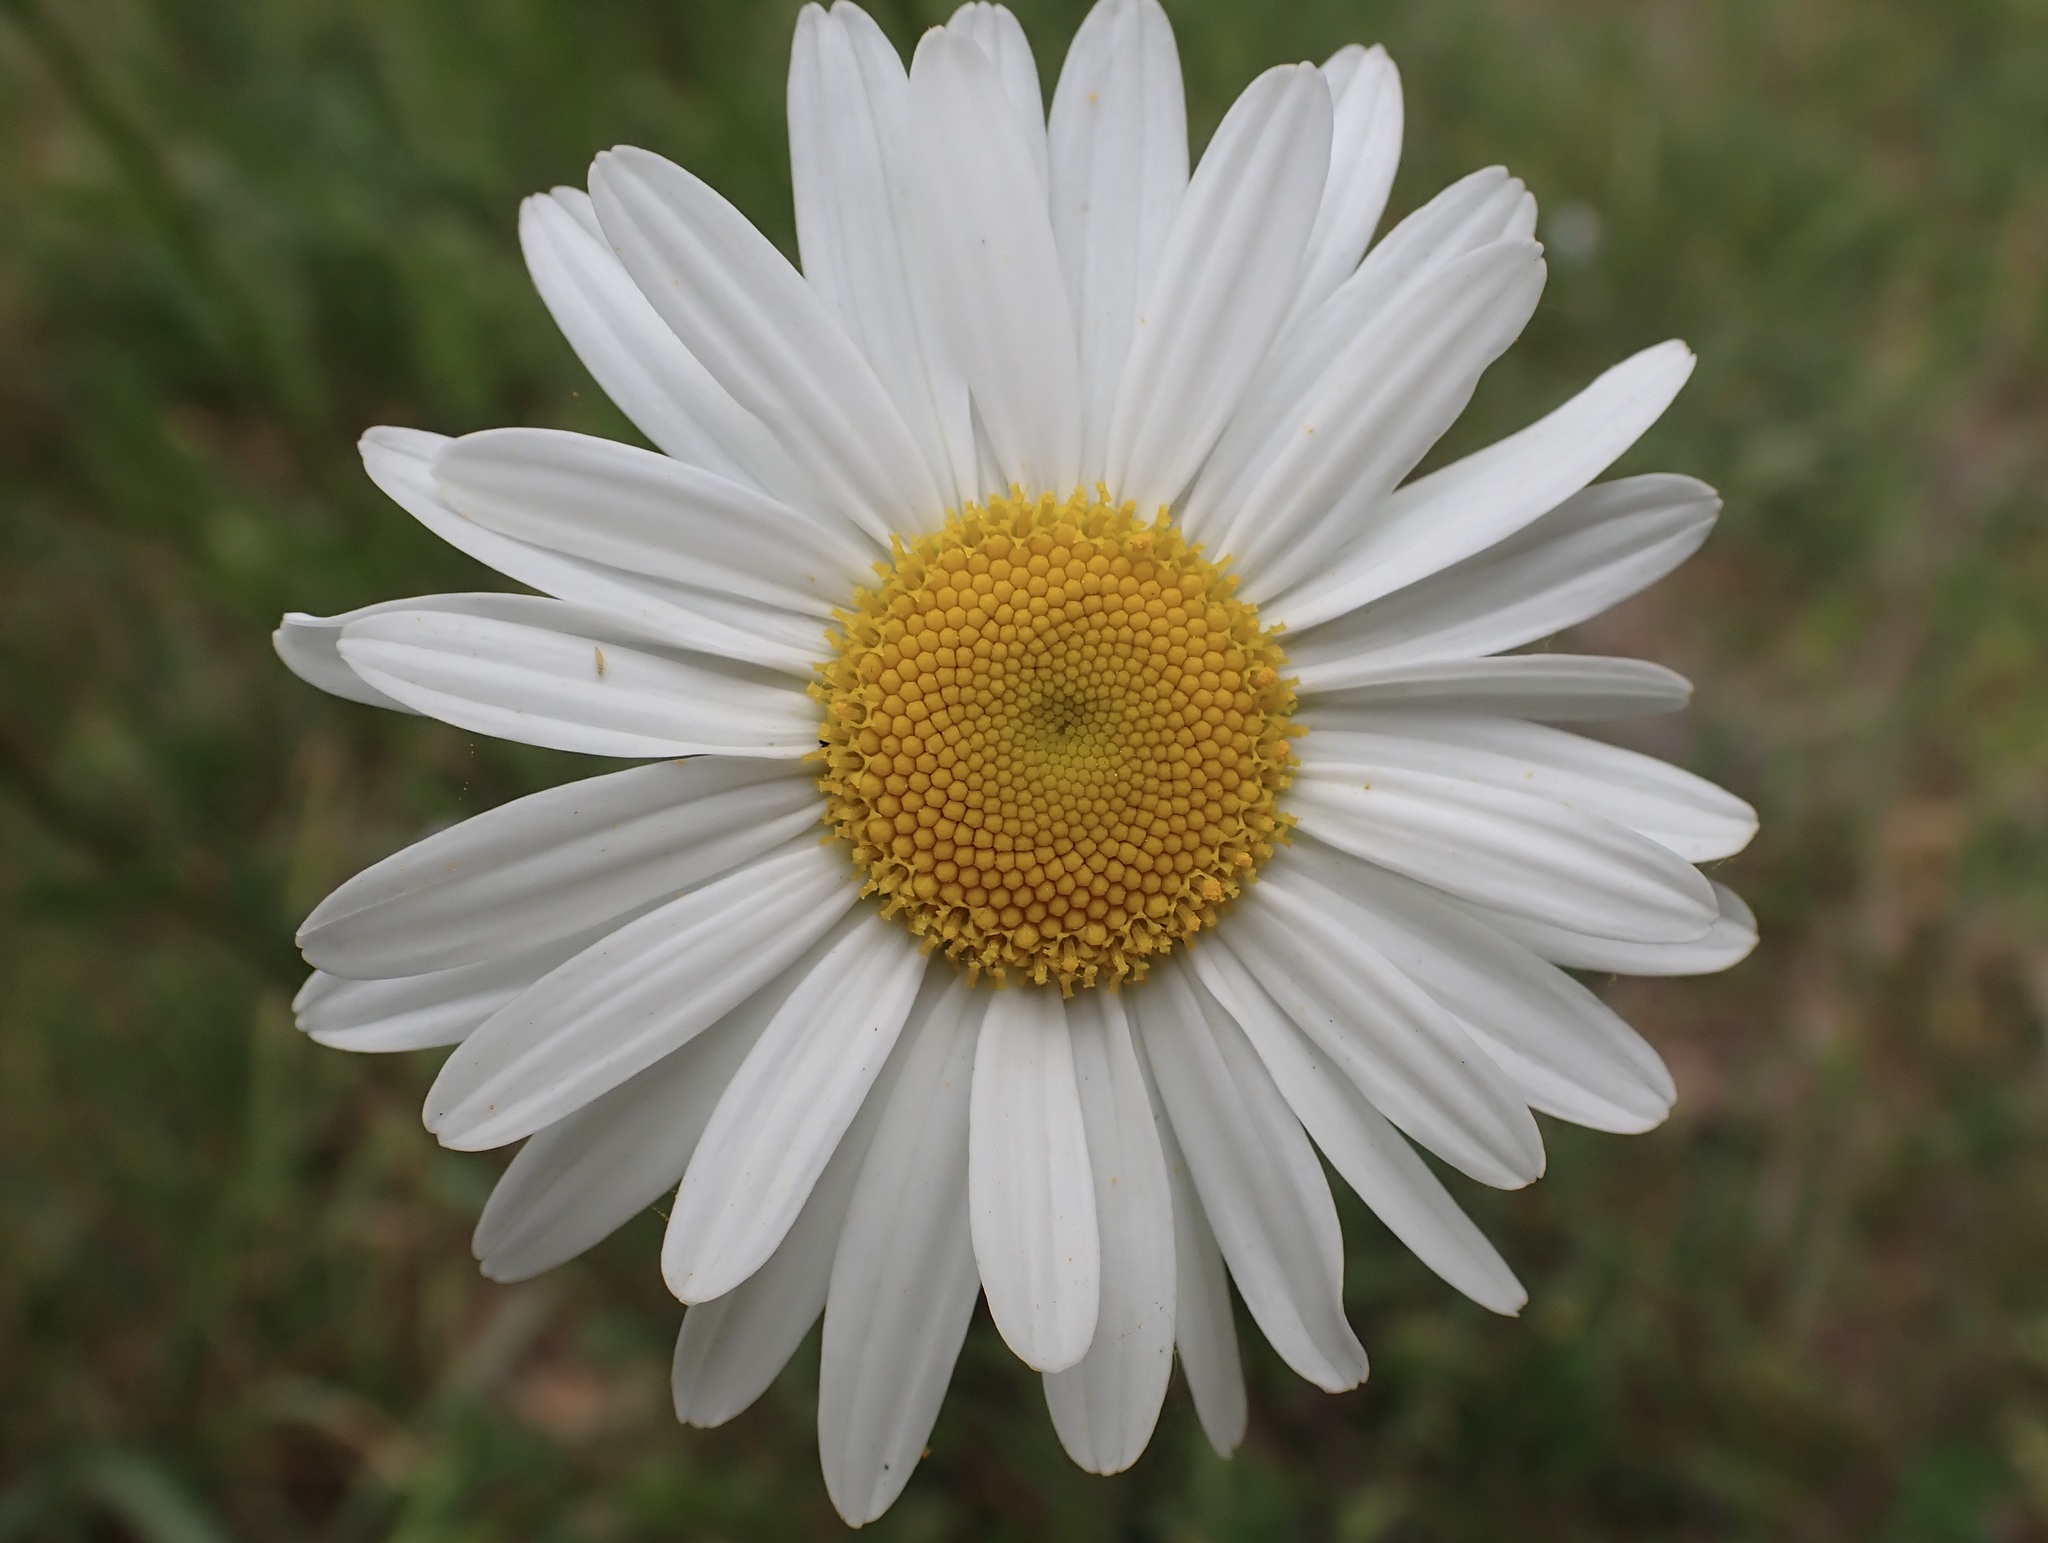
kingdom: Plantae
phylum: Tracheophyta
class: Magnoliopsida
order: Asterales
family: Asteraceae
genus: Leucanthemum
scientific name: Leucanthemum vulgare
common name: Oxeye daisy
